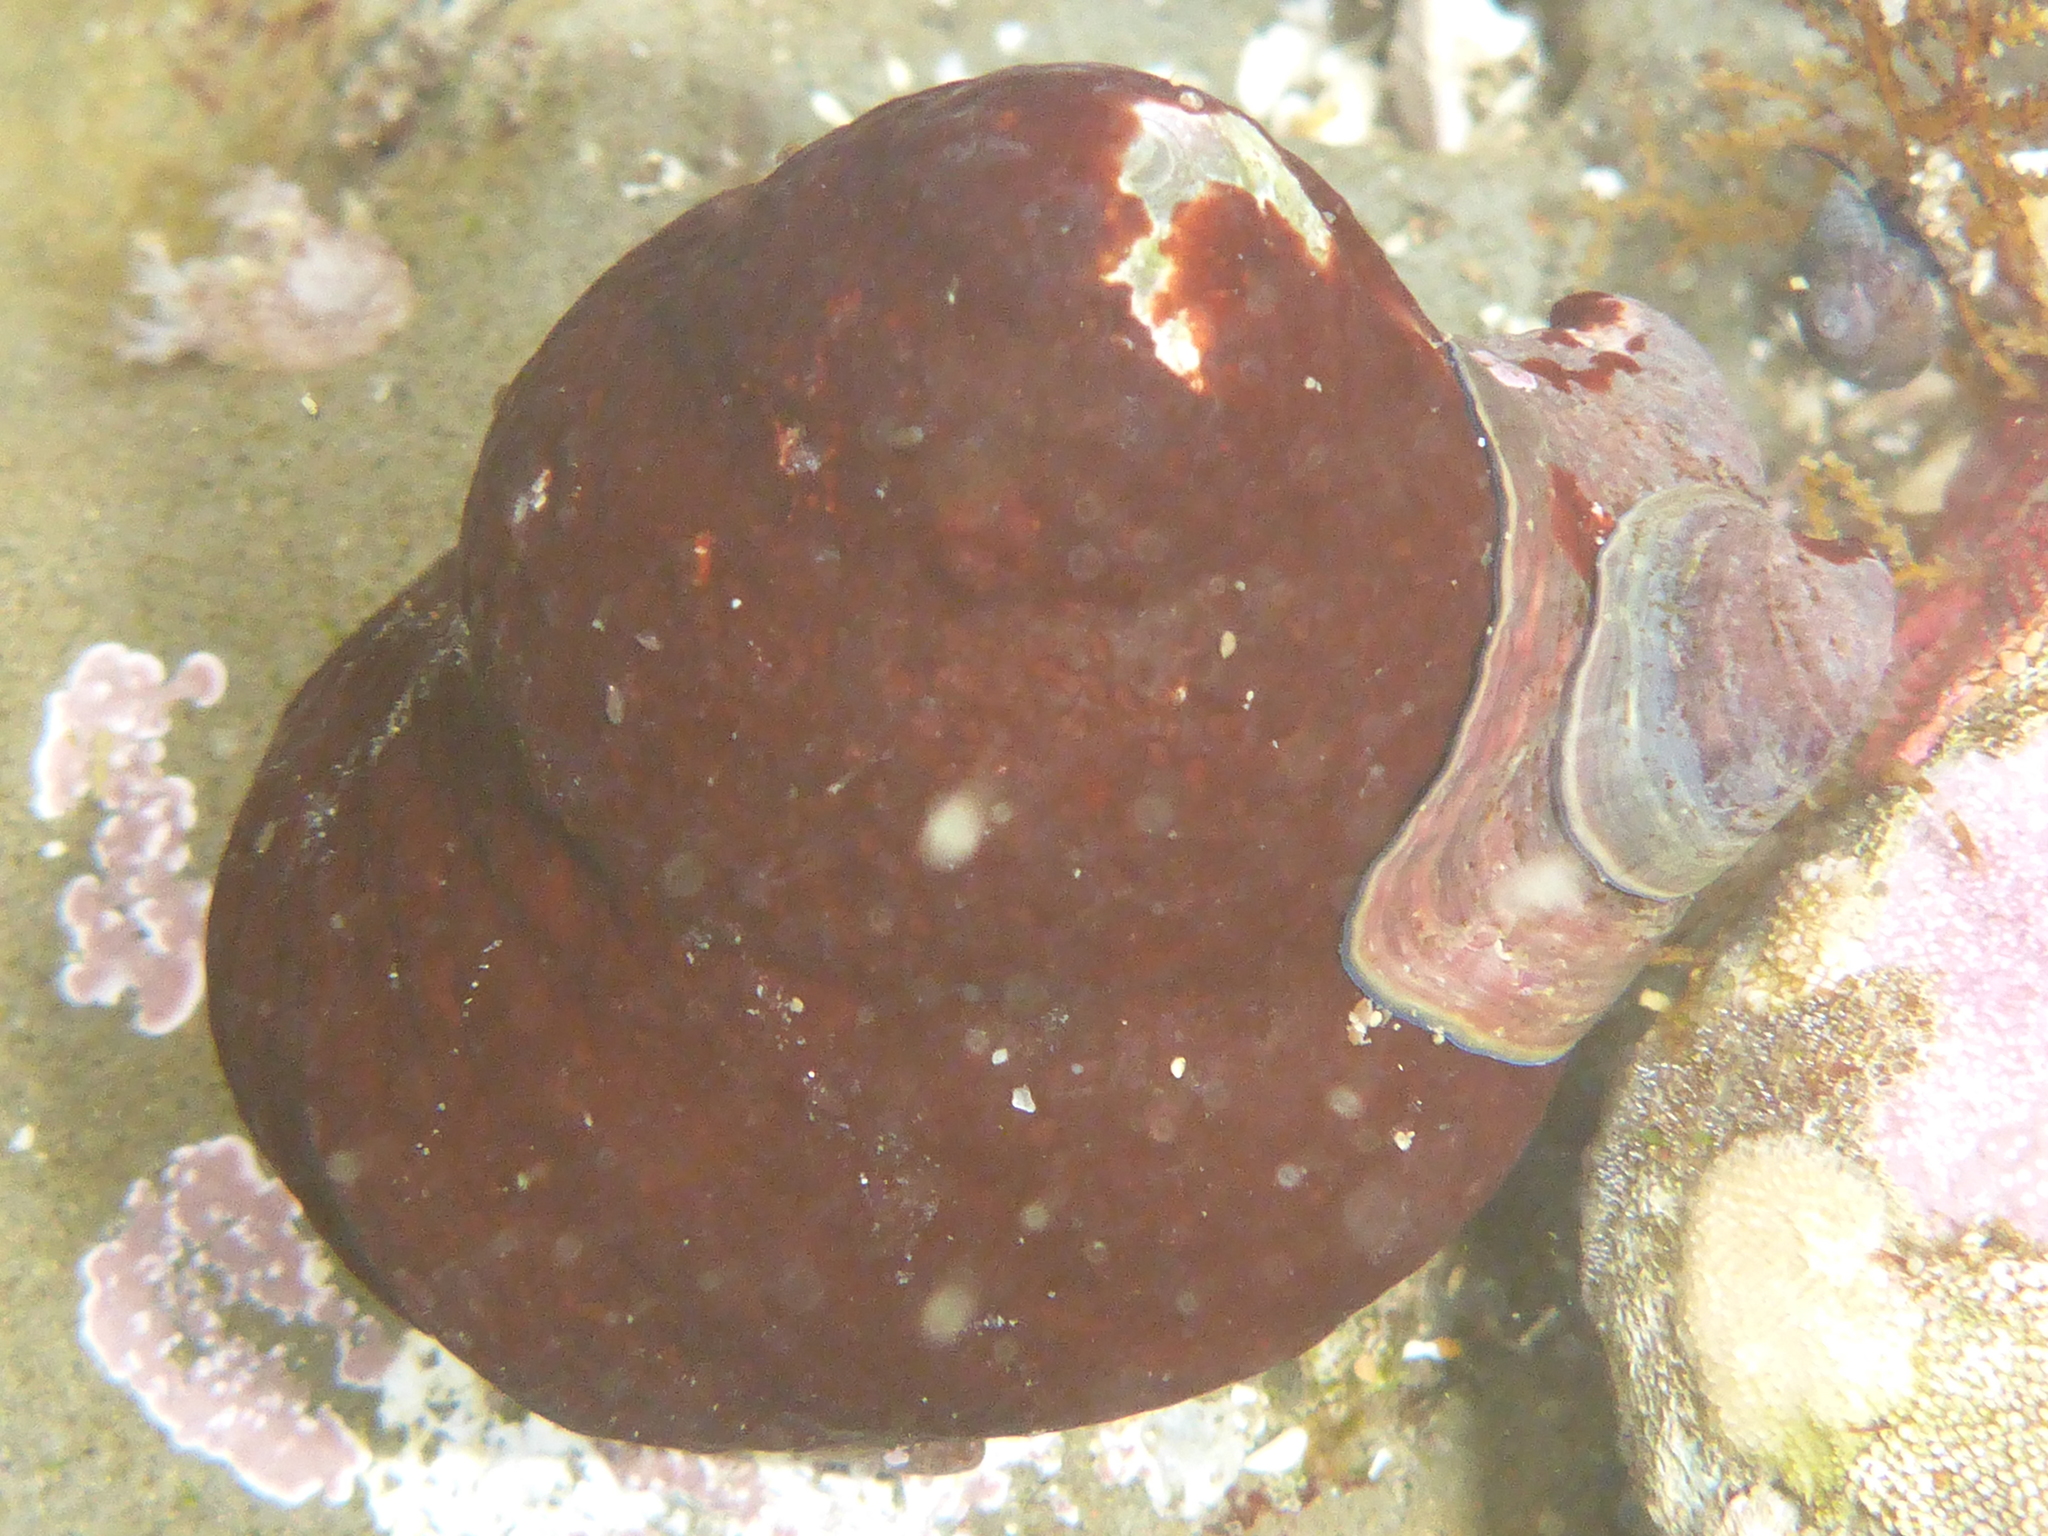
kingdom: Animalia
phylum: Mollusca
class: Gastropoda
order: Littorinimorpha
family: Calyptraeidae
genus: Crepidula
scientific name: Crepidula adunca
